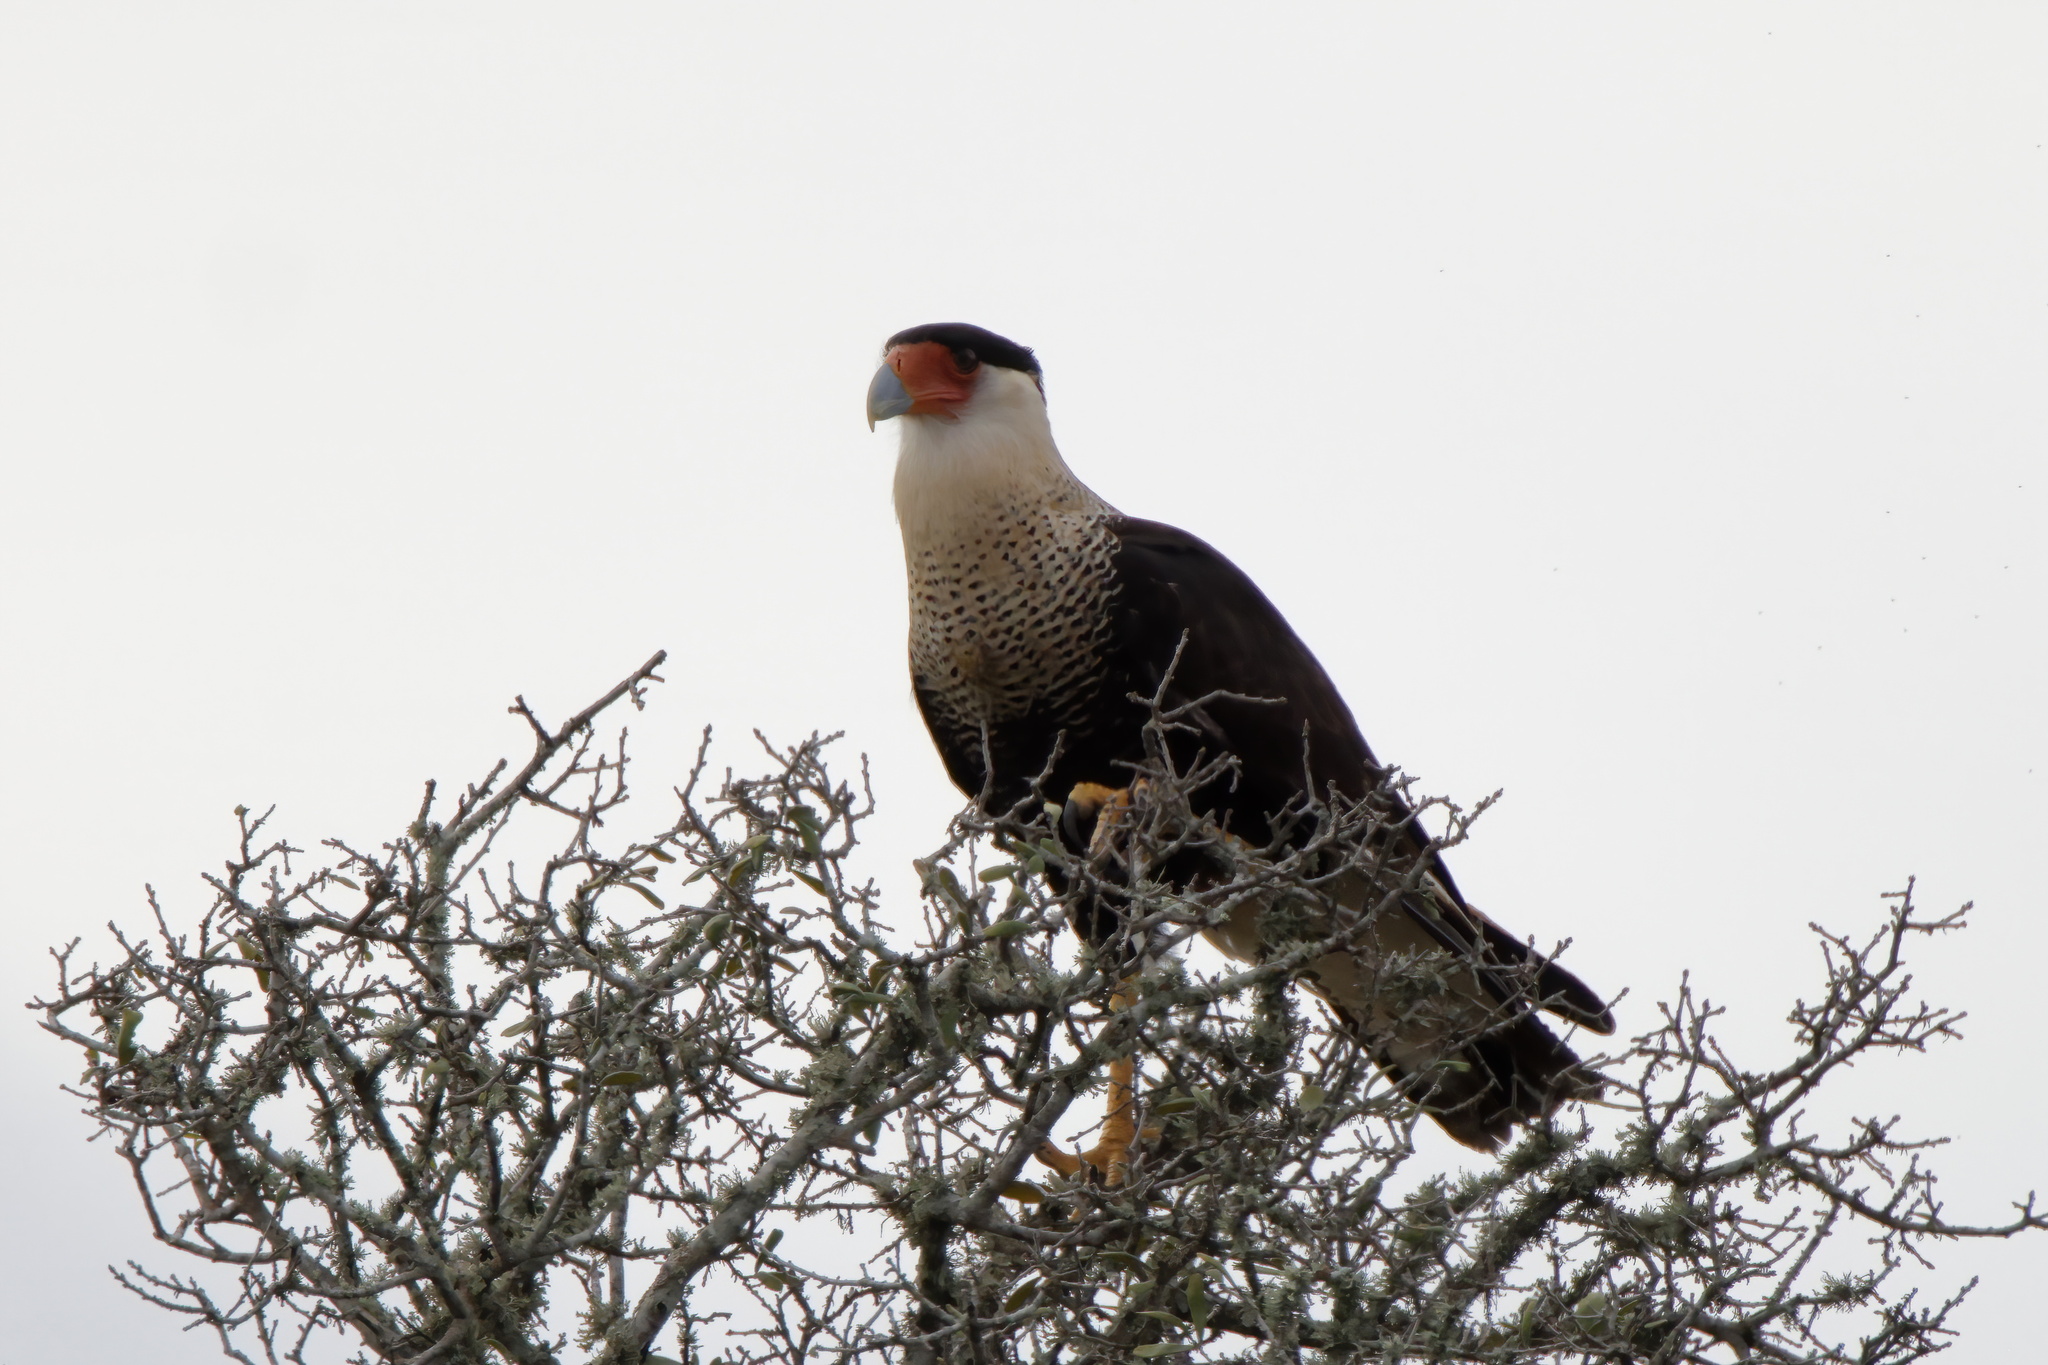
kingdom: Animalia
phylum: Chordata
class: Aves
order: Falconiformes
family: Falconidae
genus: Caracara
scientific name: Caracara plancus
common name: Southern caracara
